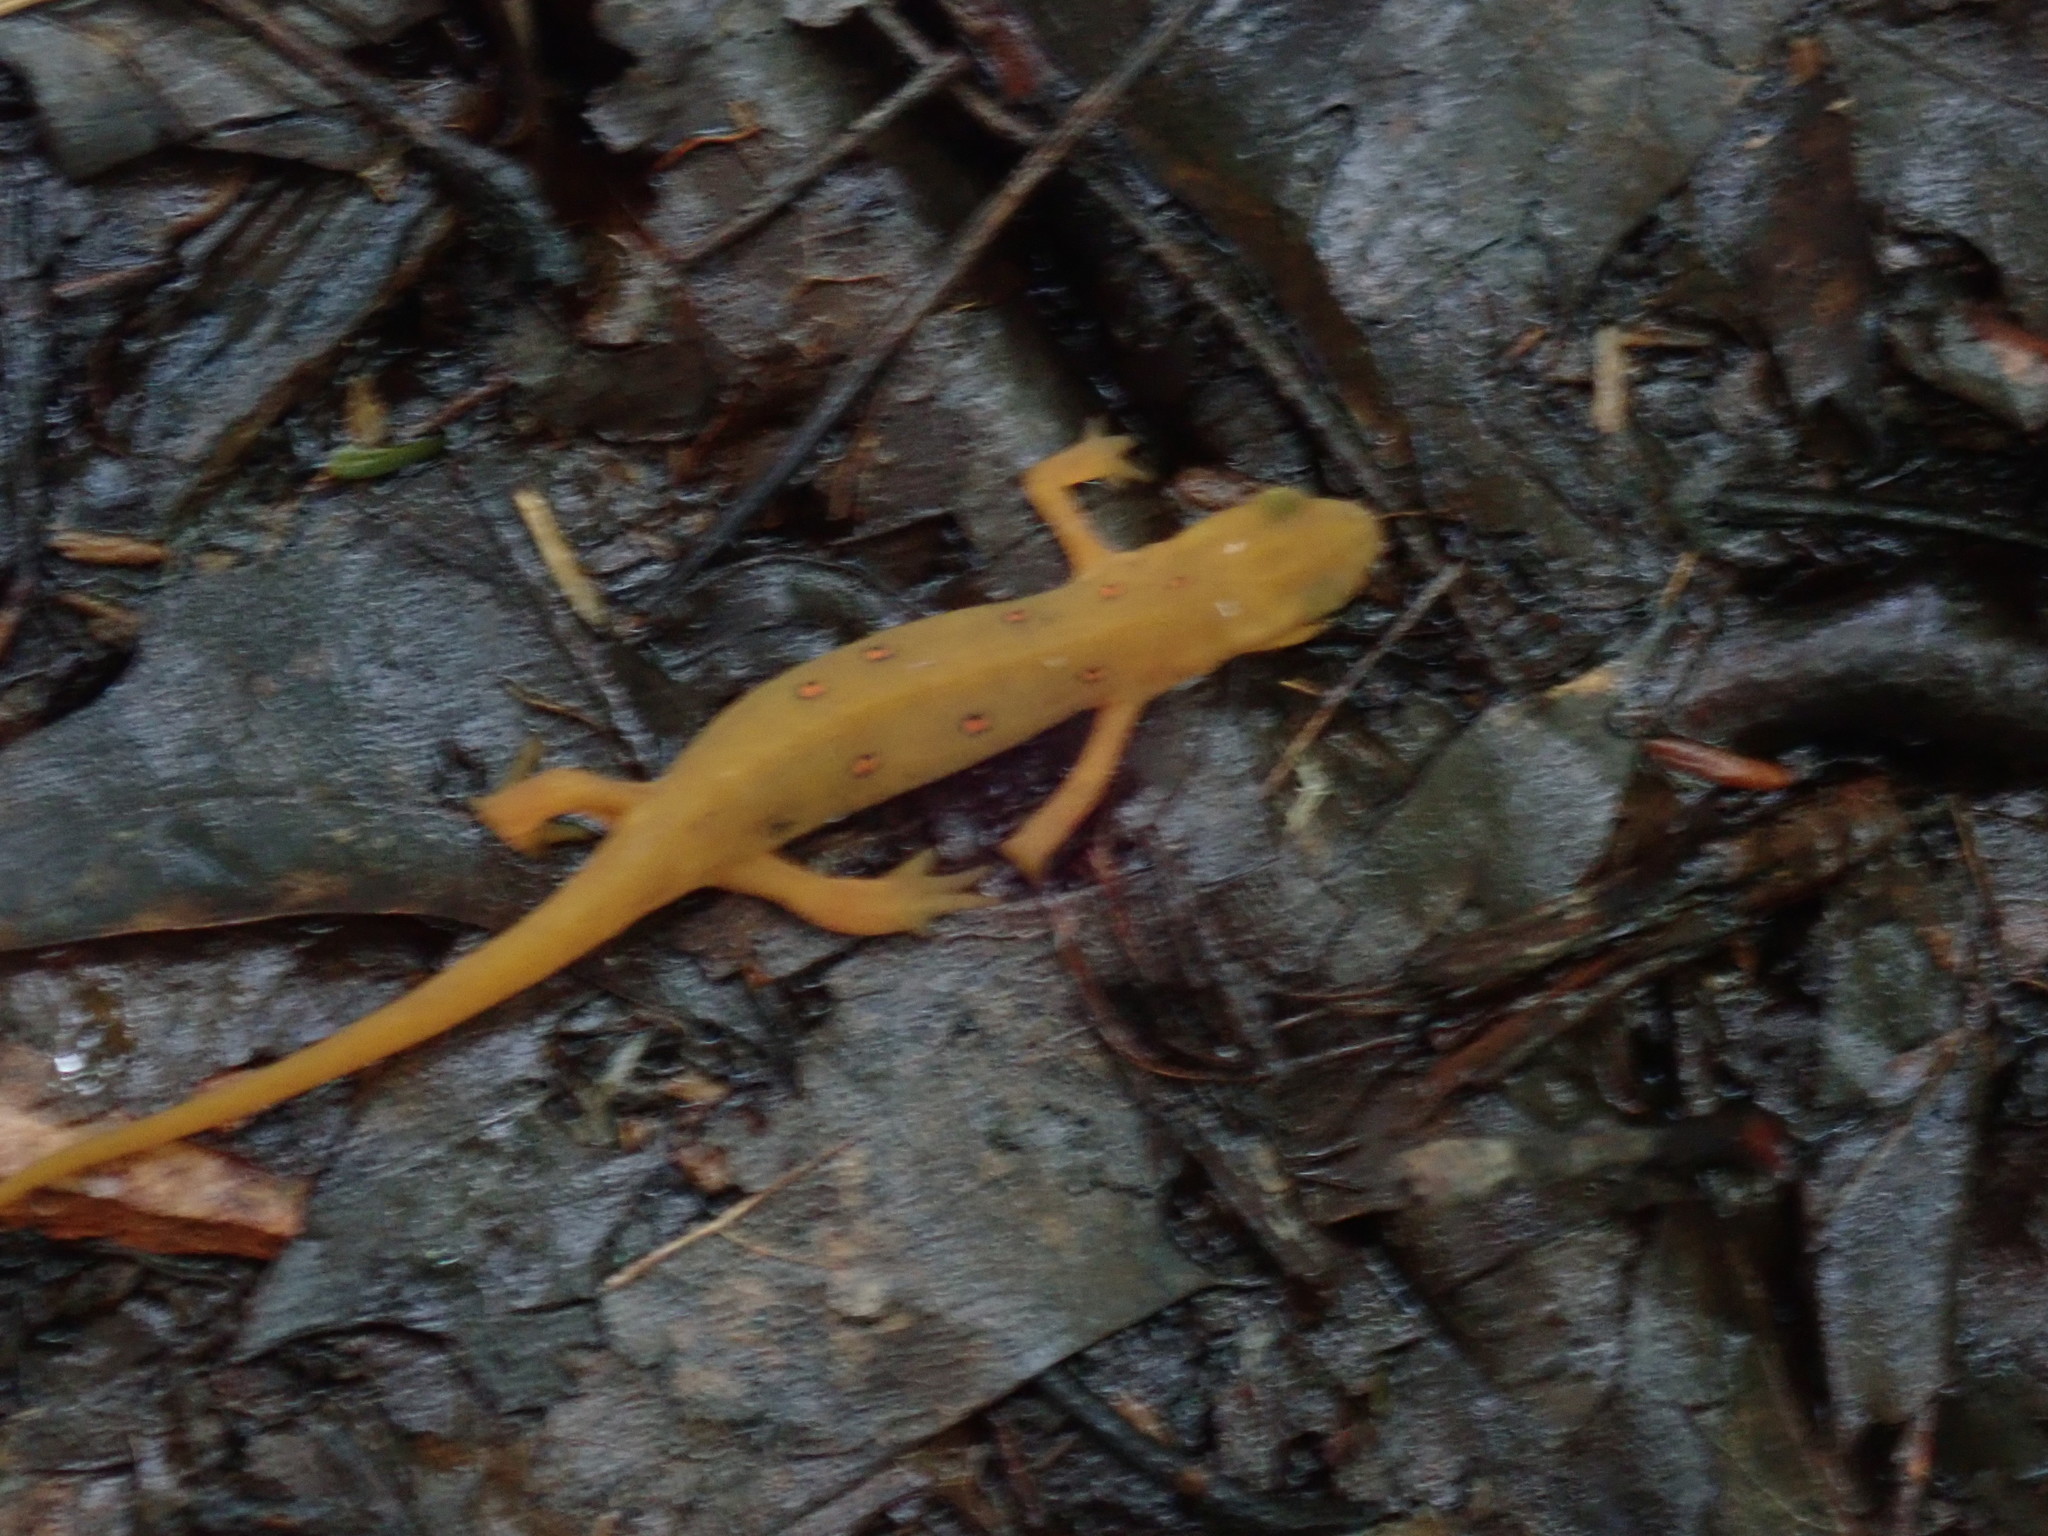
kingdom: Animalia
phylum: Chordata
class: Amphibia
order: Caudata
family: Salamandridae
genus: Notophthalmus
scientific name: Notophthalmus viridescens
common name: Eastern newt
